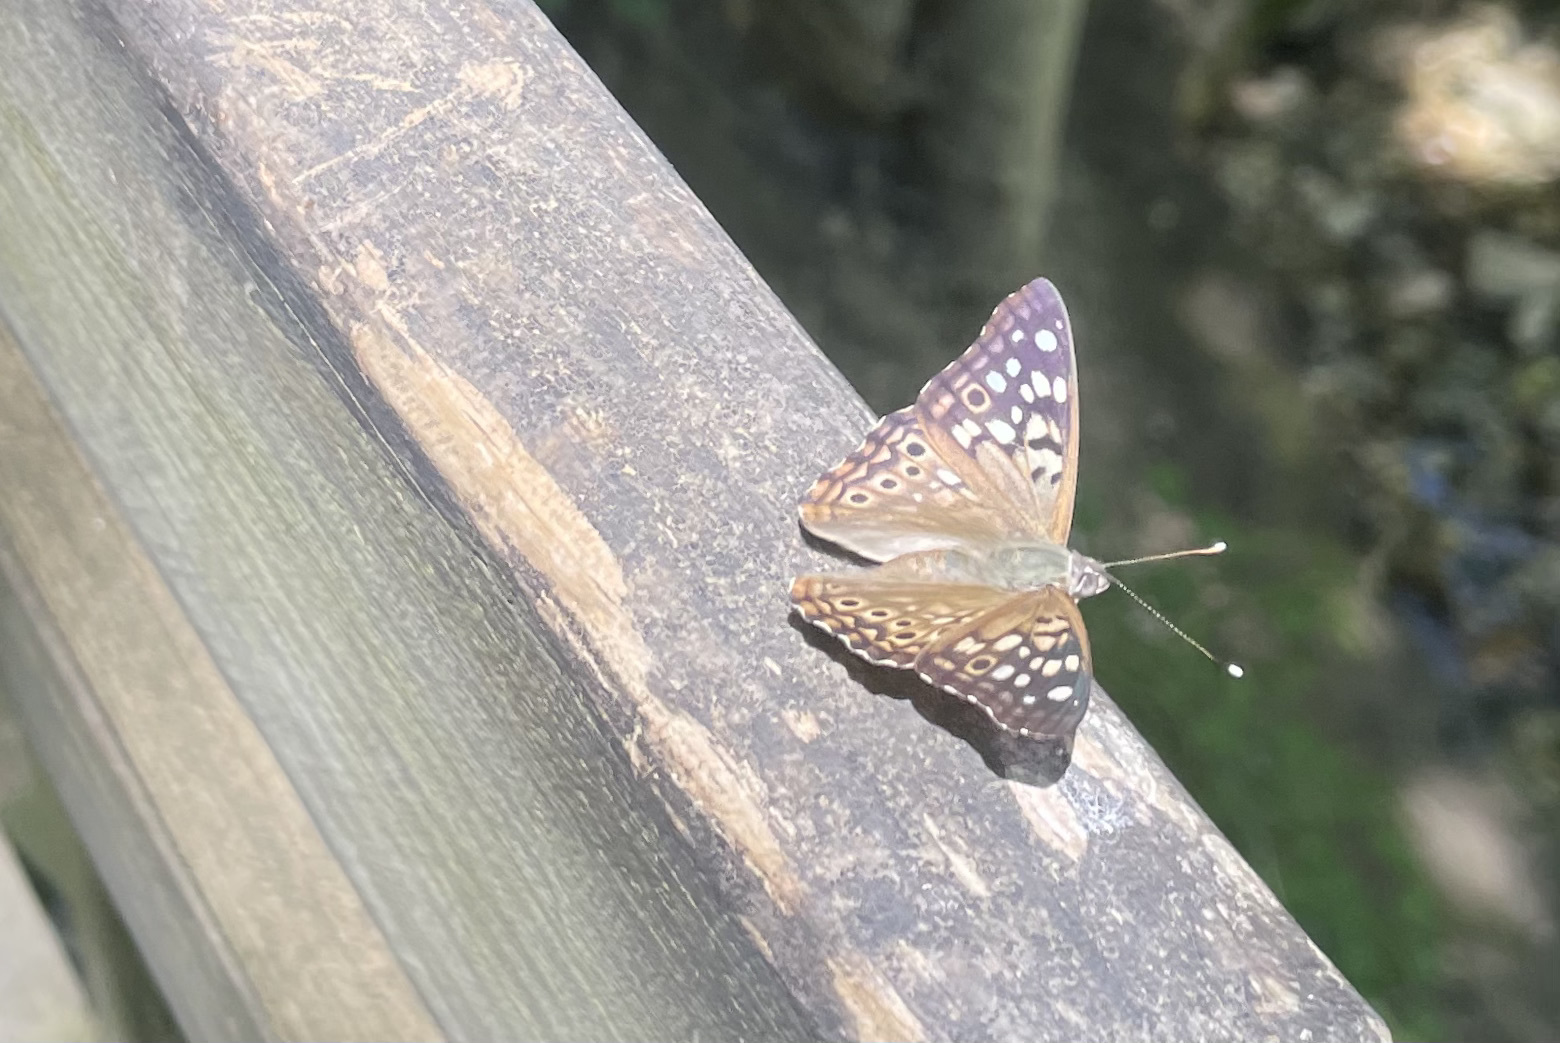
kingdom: Animalia
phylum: Arthropoda
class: Insecta
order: Lepidoptera
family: Nymphalidae
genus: Asterocampa
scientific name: Asterocampa celtis
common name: Hackberry emperor
